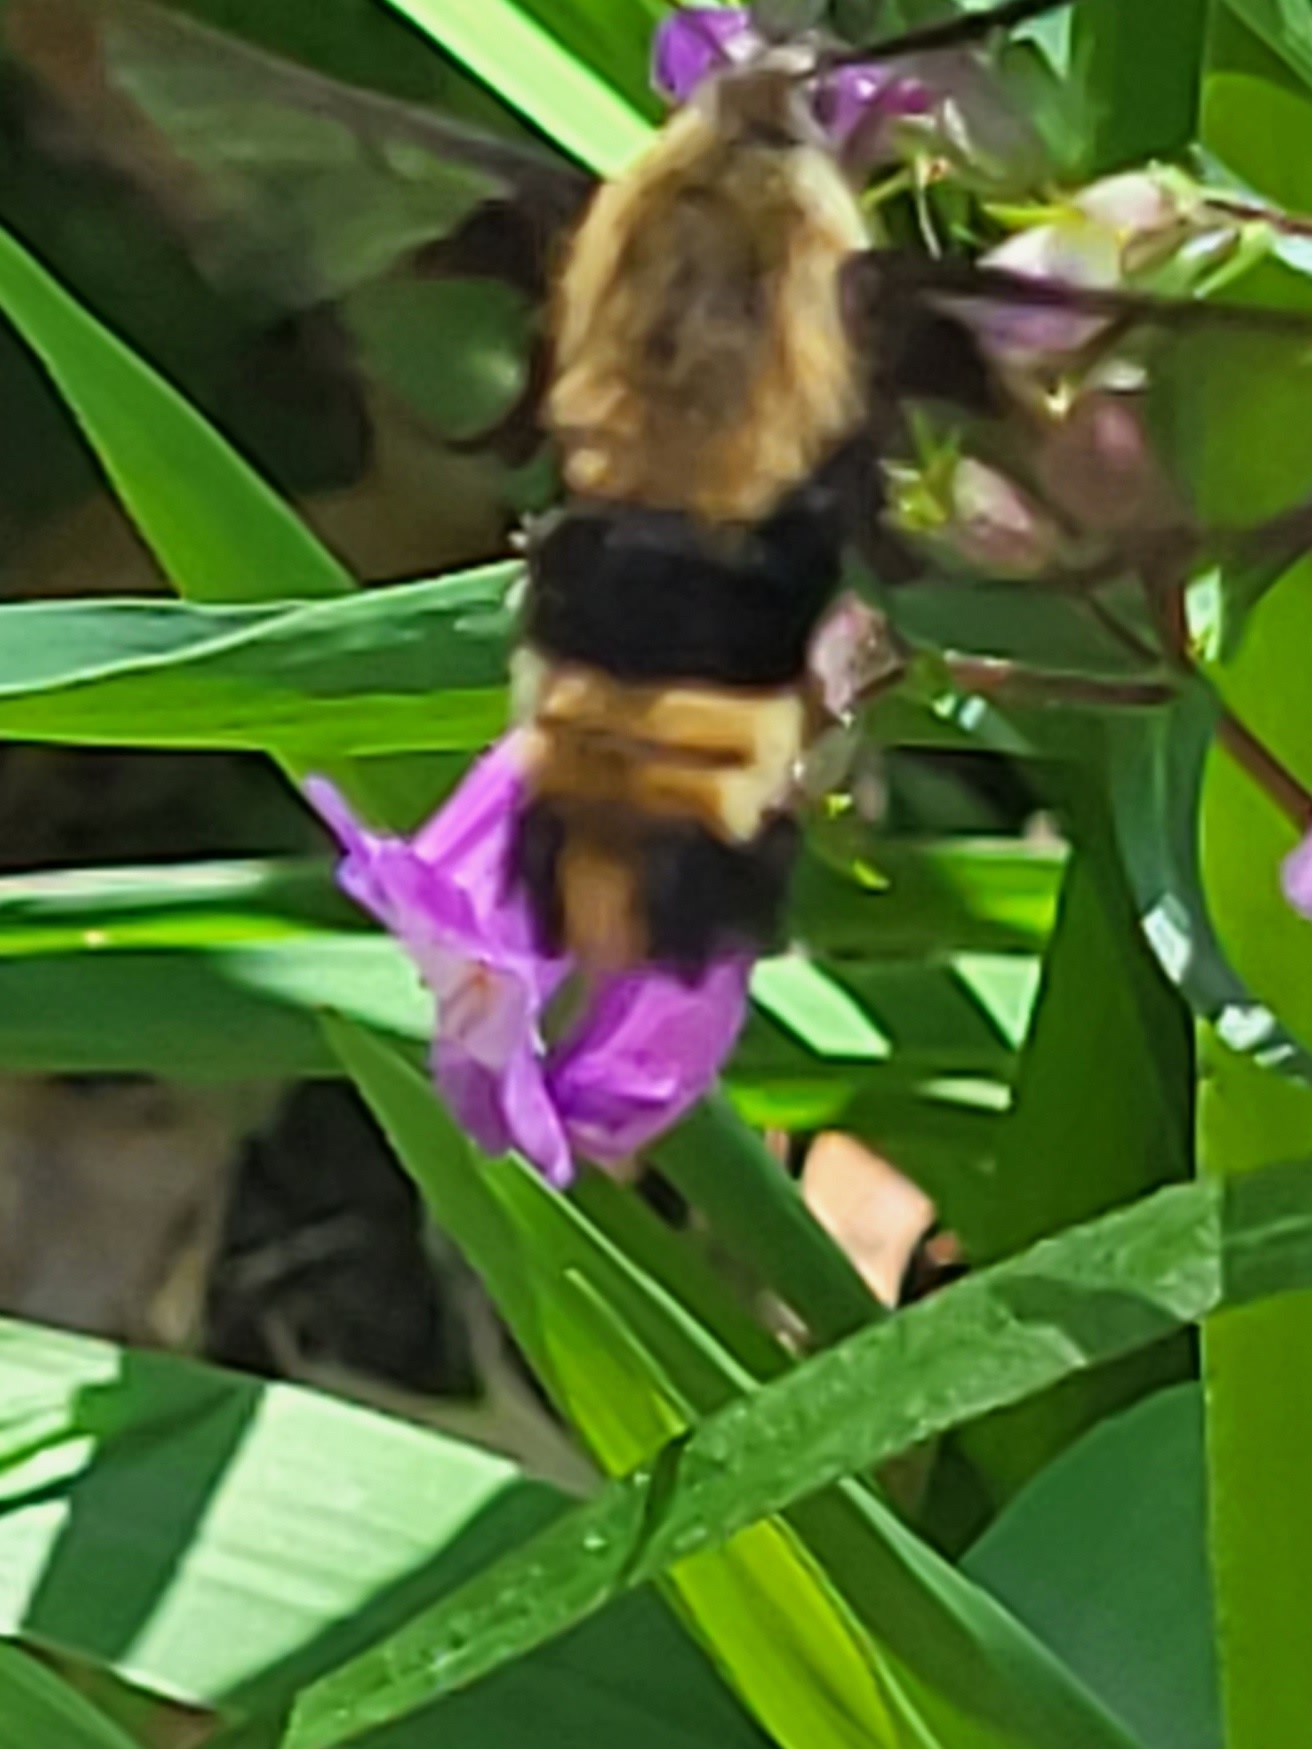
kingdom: Animalia
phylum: Arthropoda
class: Insecta
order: Lepidoptera
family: Sphingidae
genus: Hemaris
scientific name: Hemaris diffinis
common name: Bumblebee moth
